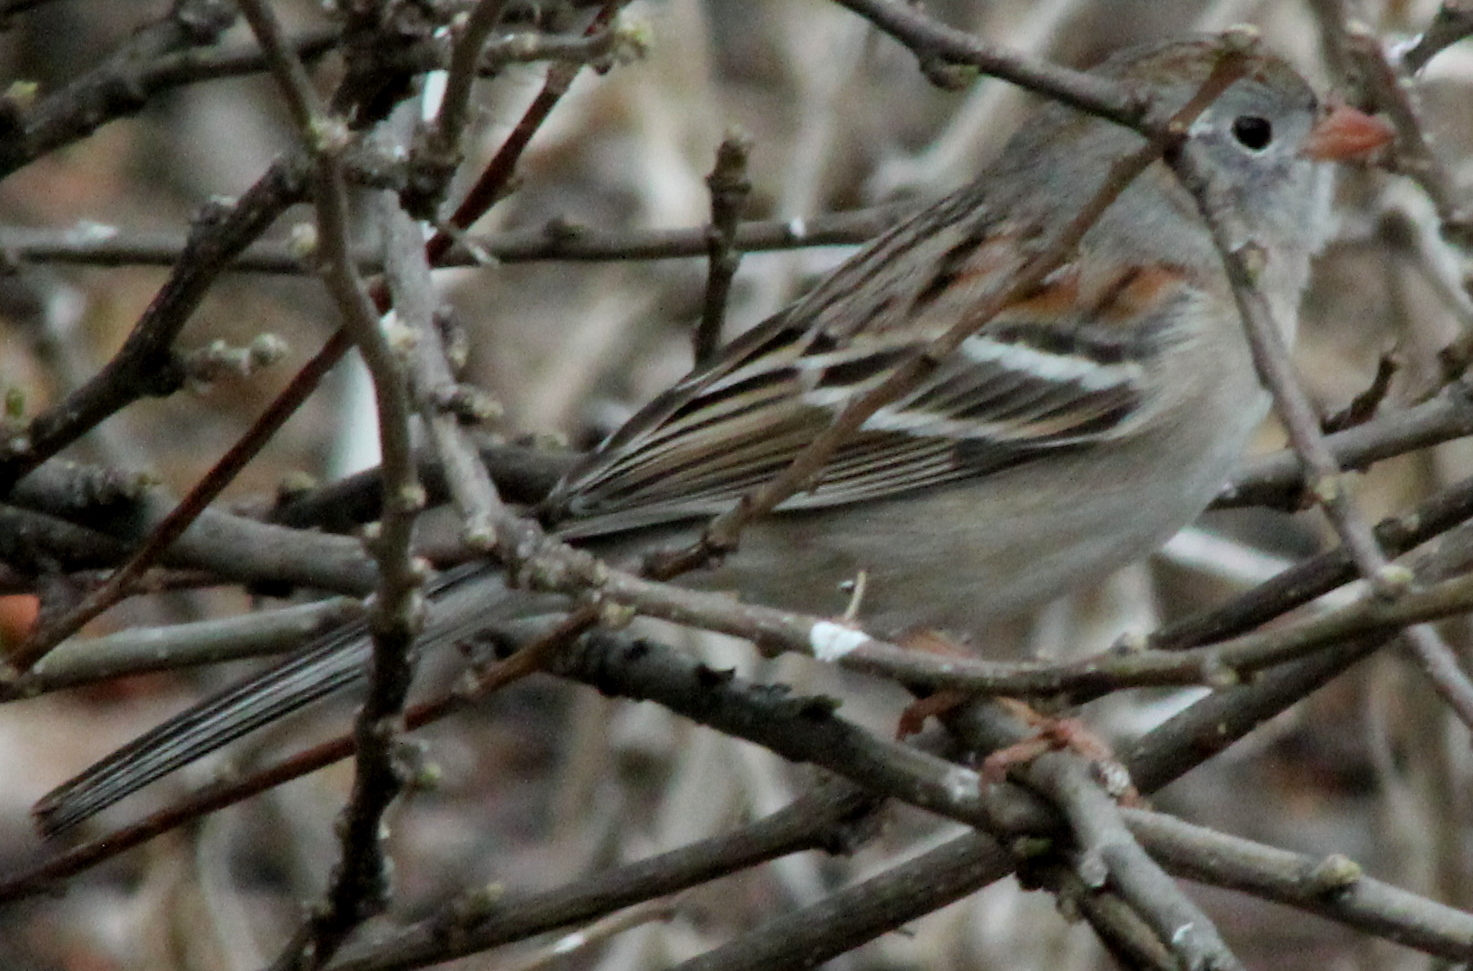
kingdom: Animalia
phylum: Chordata
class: Aves
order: Passeriformes
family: Passerellidae
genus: Spizella
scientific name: Spizella pusilla
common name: Field sparrow
